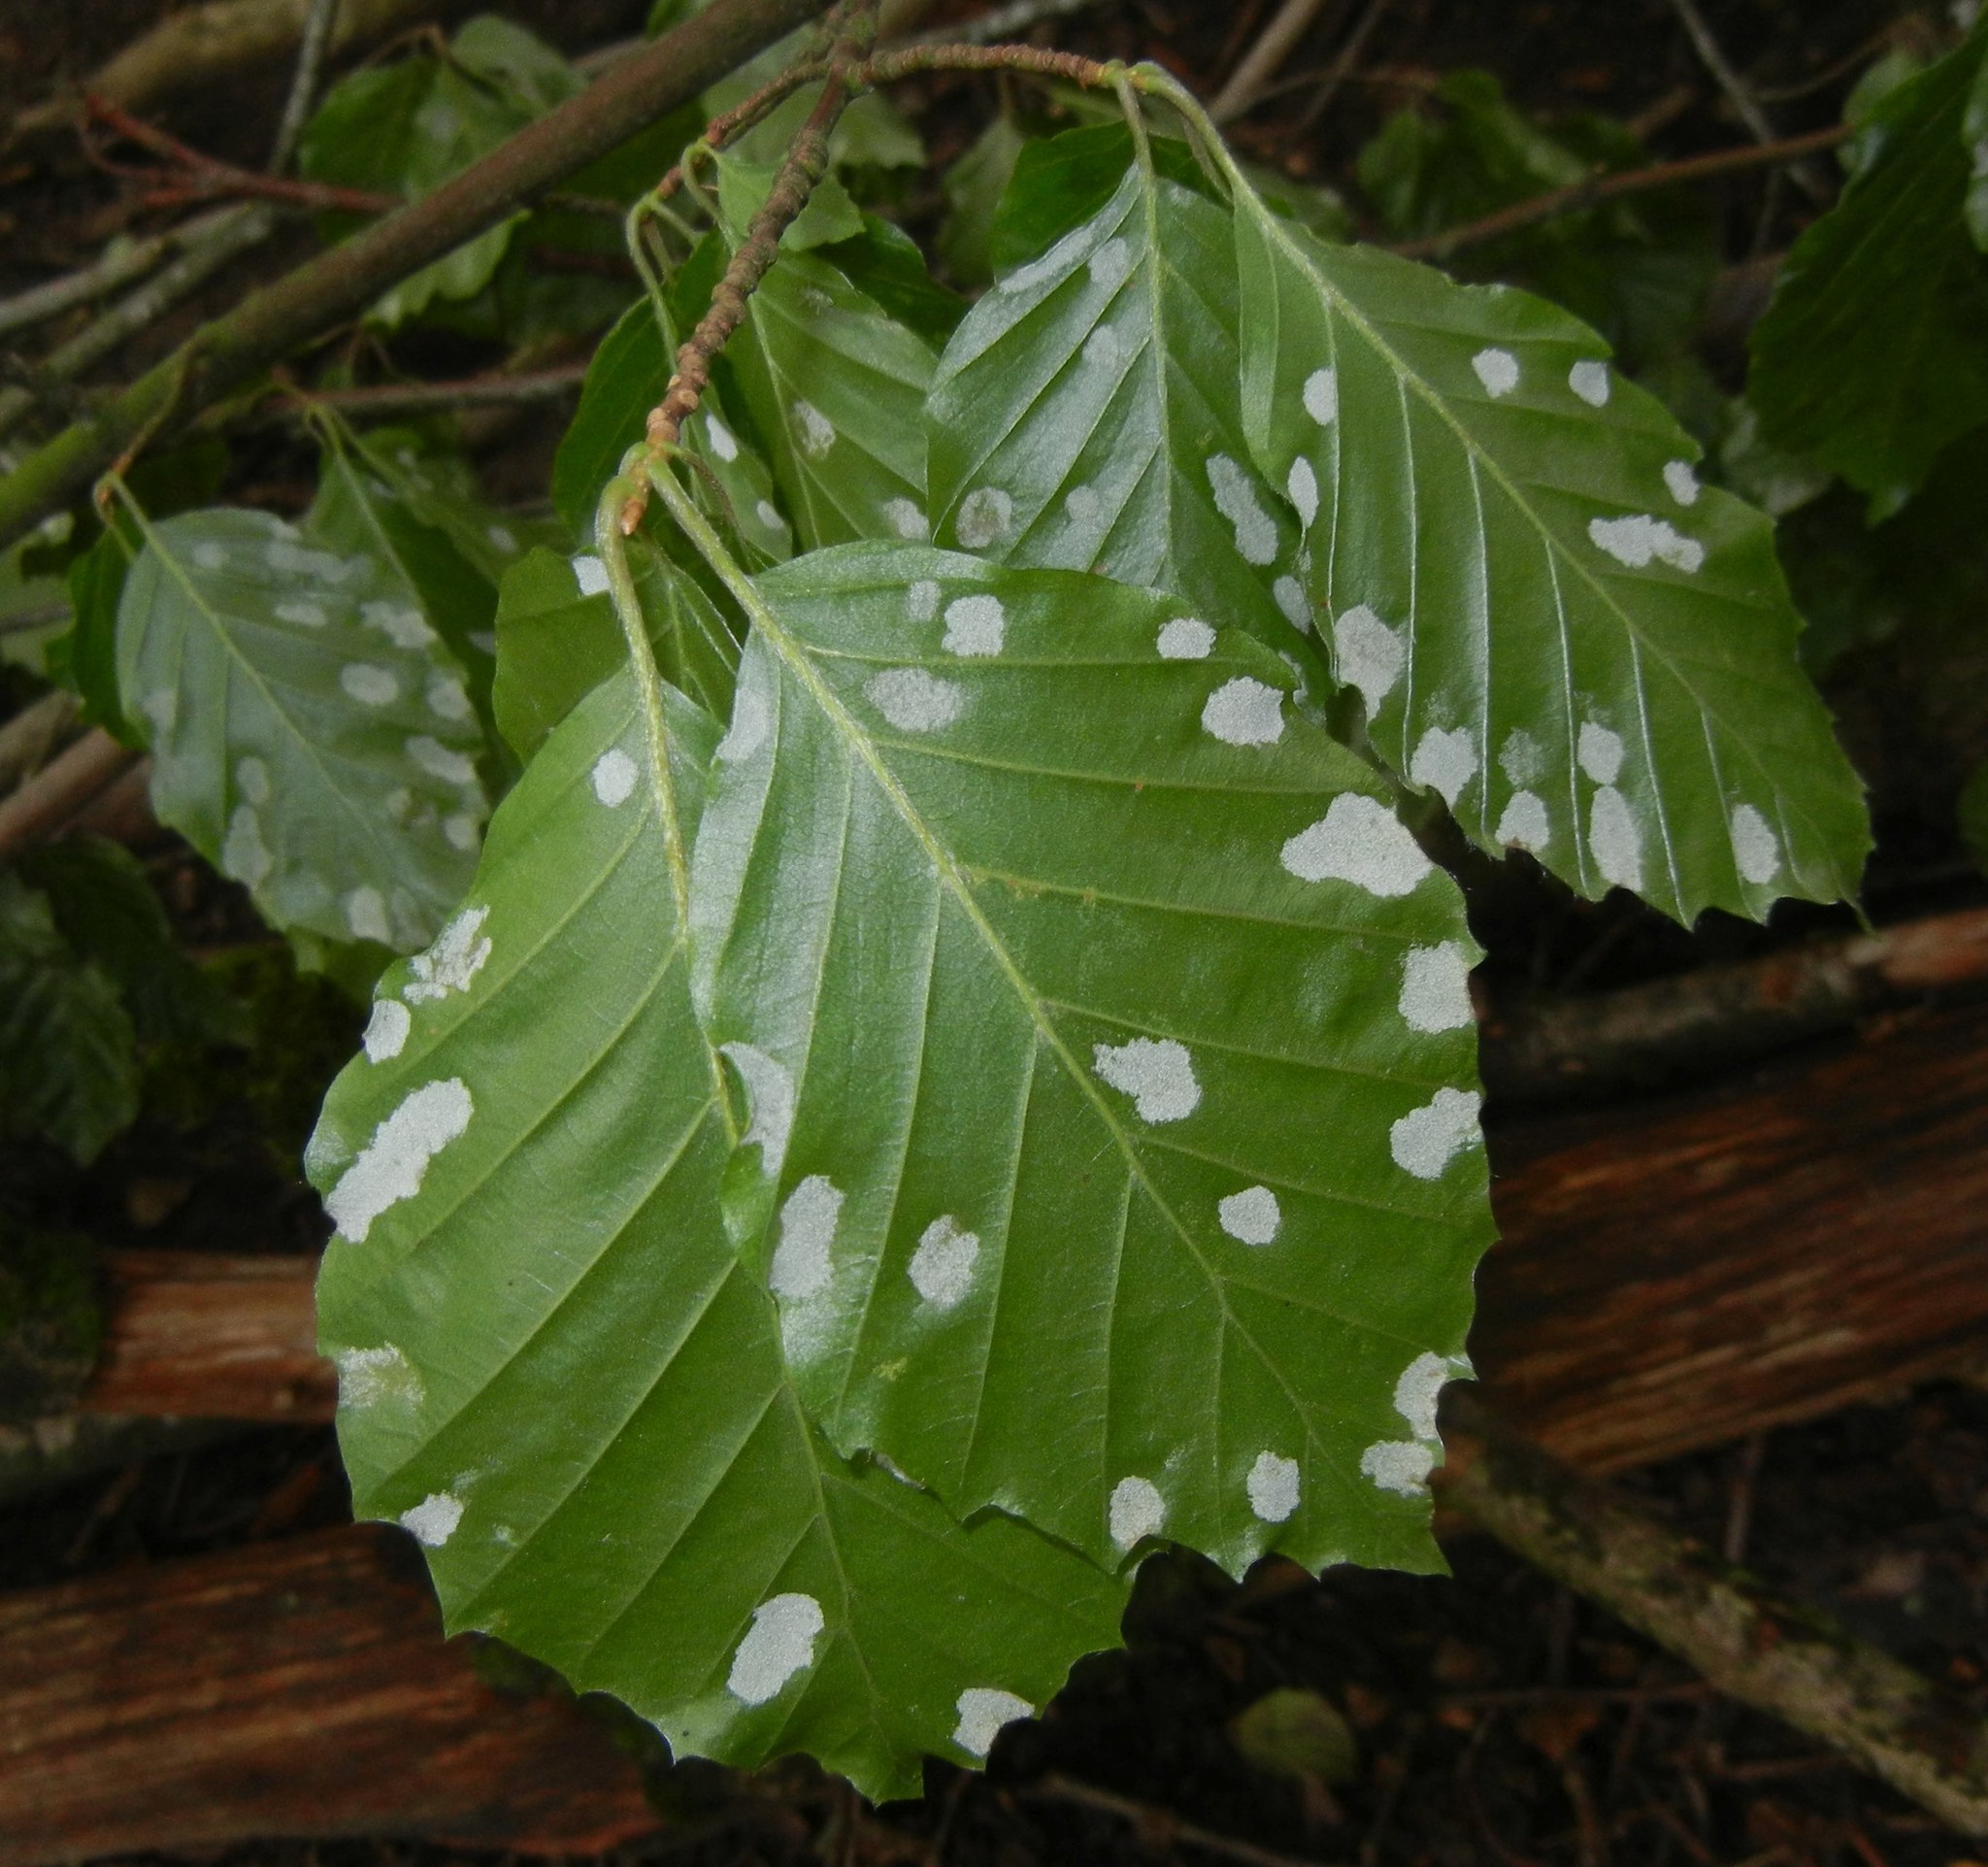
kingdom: Animalia
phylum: Arthropoda
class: Arachnida
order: Trombidiformes
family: Eriophyidae
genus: Aceria
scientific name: Aceria nervisequa
